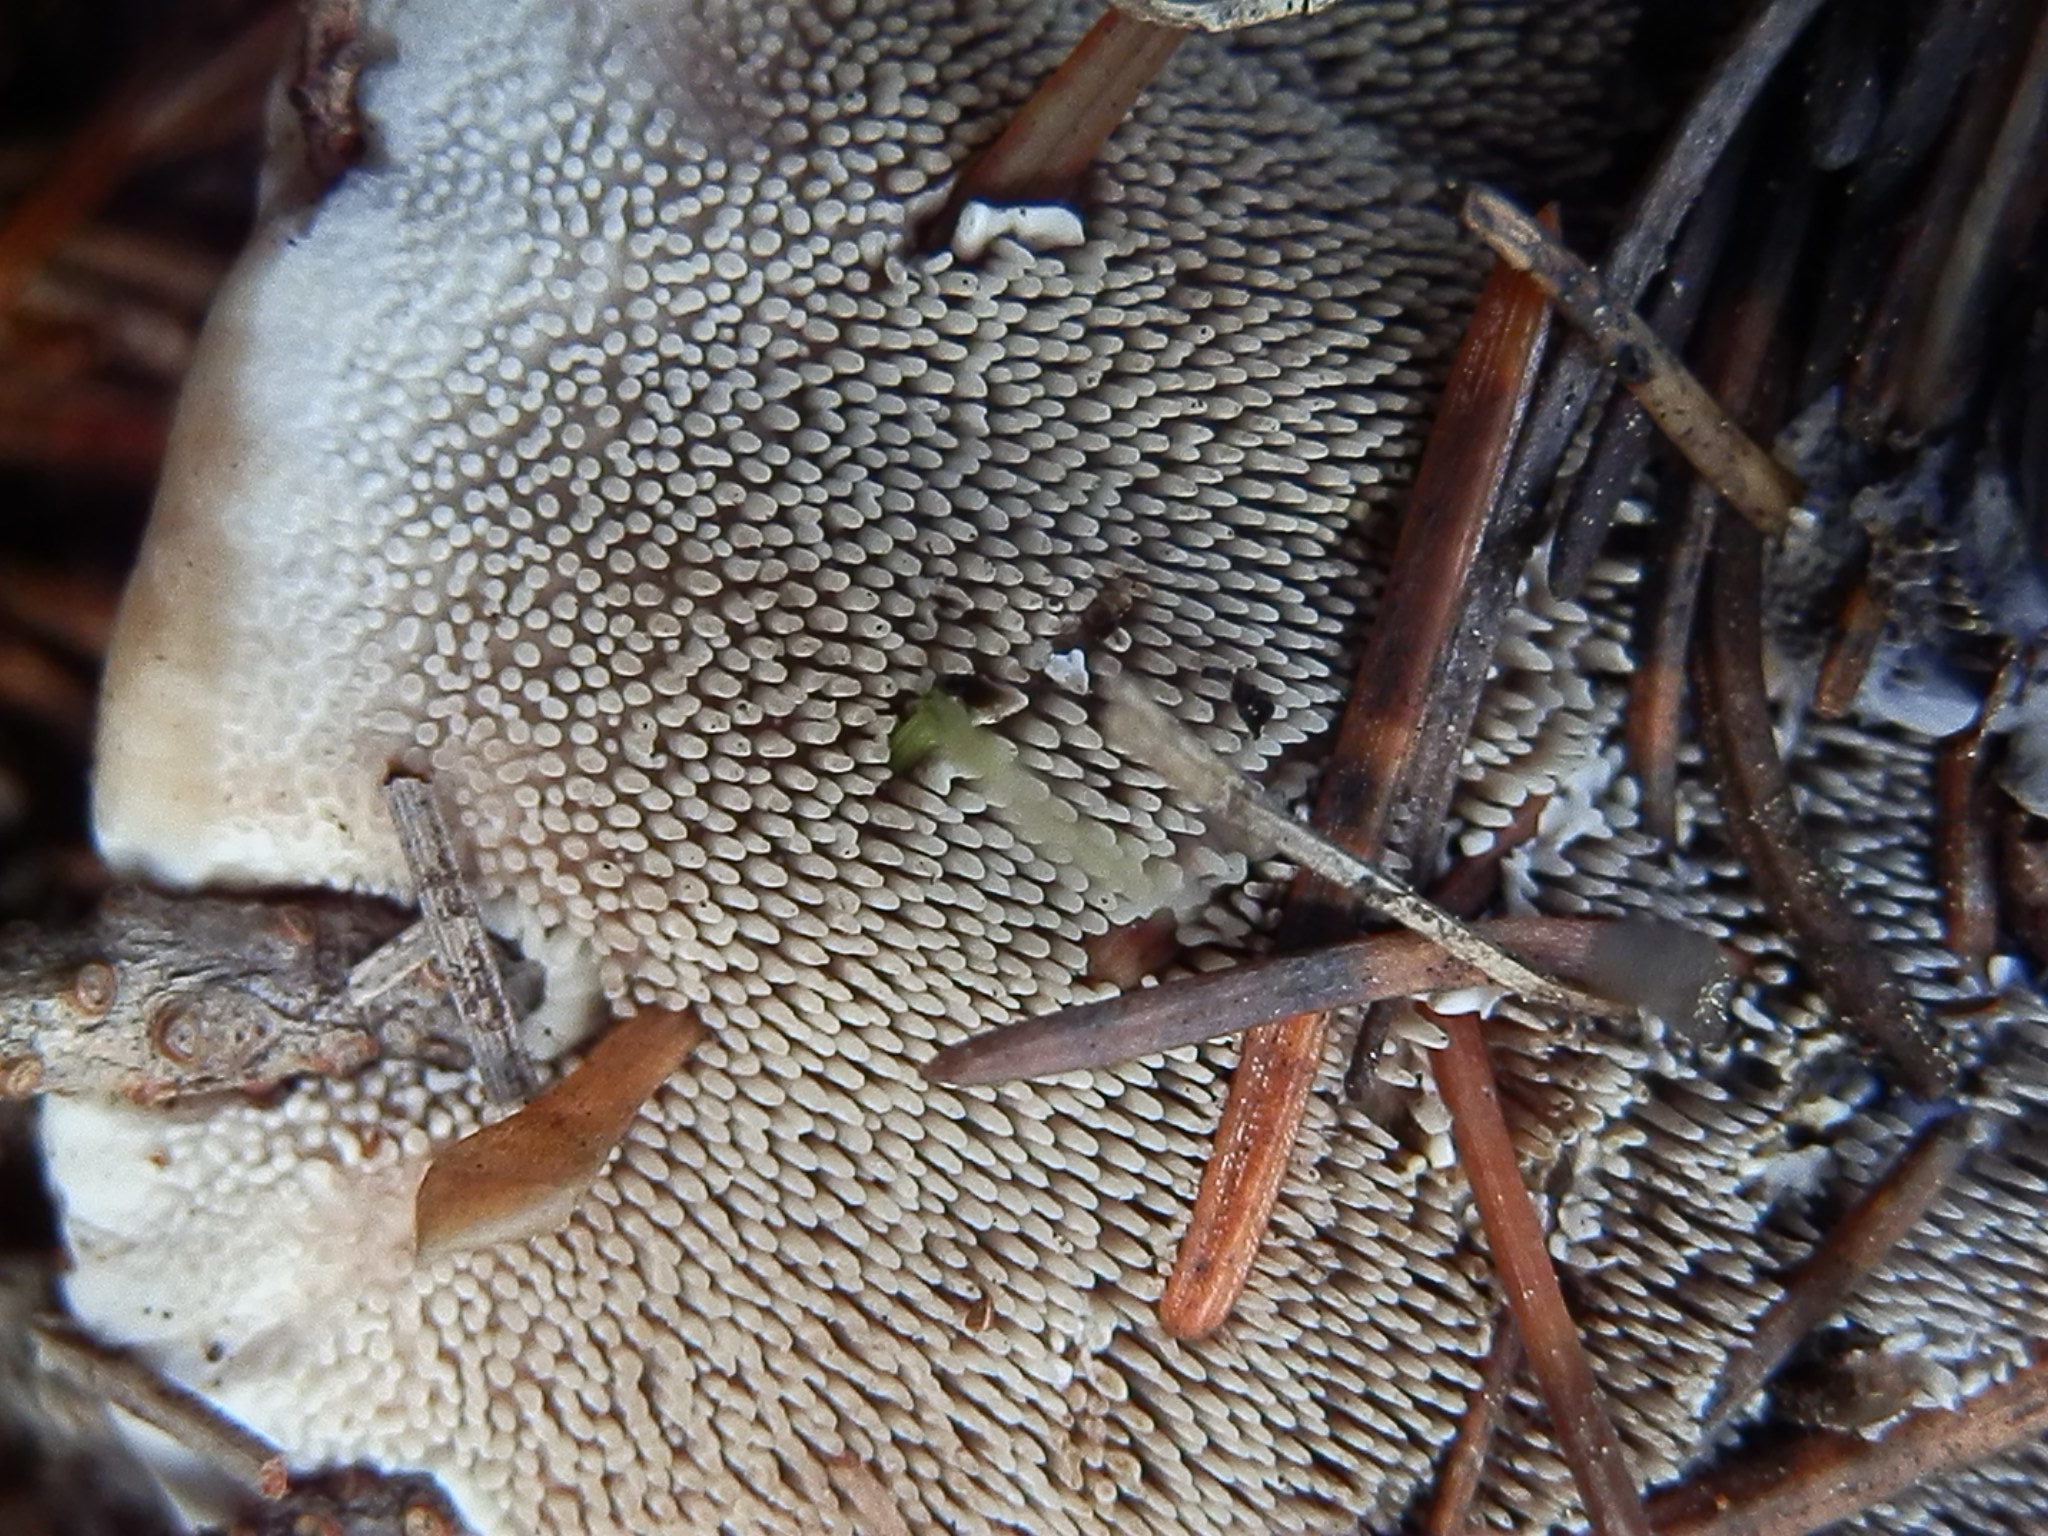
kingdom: Fungi
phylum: Basidiomycota
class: Agaricomycetes
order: Thelephorales
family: Bankeraceae
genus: Hydnellum
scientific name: Hydnellum suaveolens
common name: Sweetgrass hydnellum
